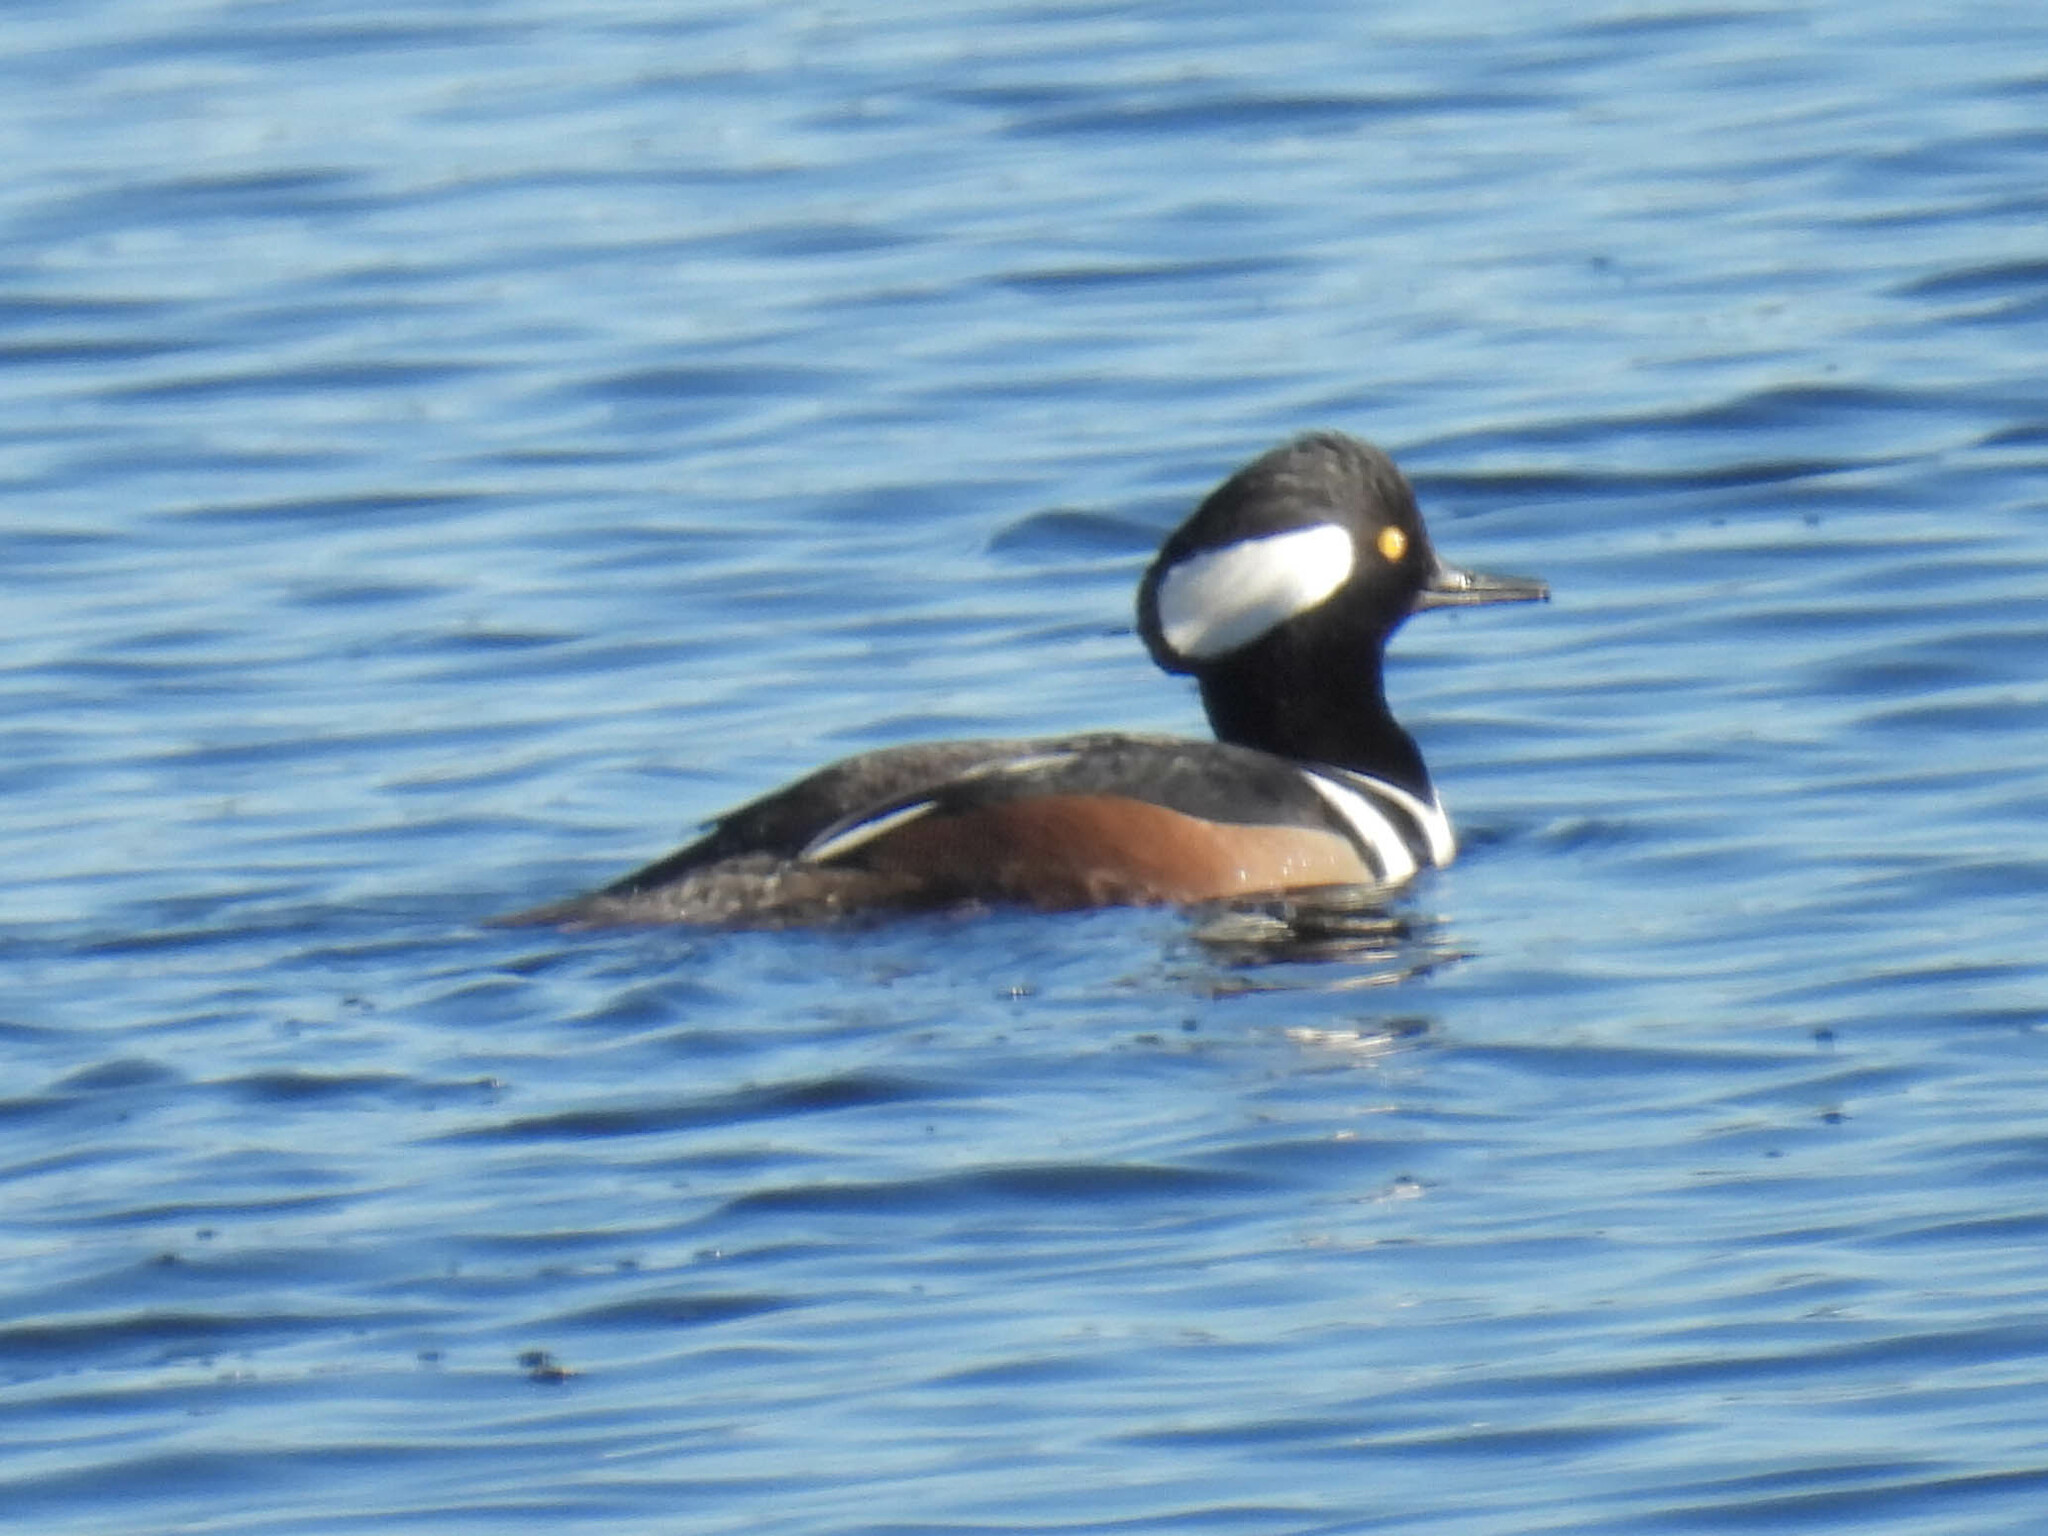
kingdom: Animalia
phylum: Chordata
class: Aves
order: Anseriformes
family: Anatidae
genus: Lophodytes
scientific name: Lophodytes cucullatus
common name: Hooded merganser
